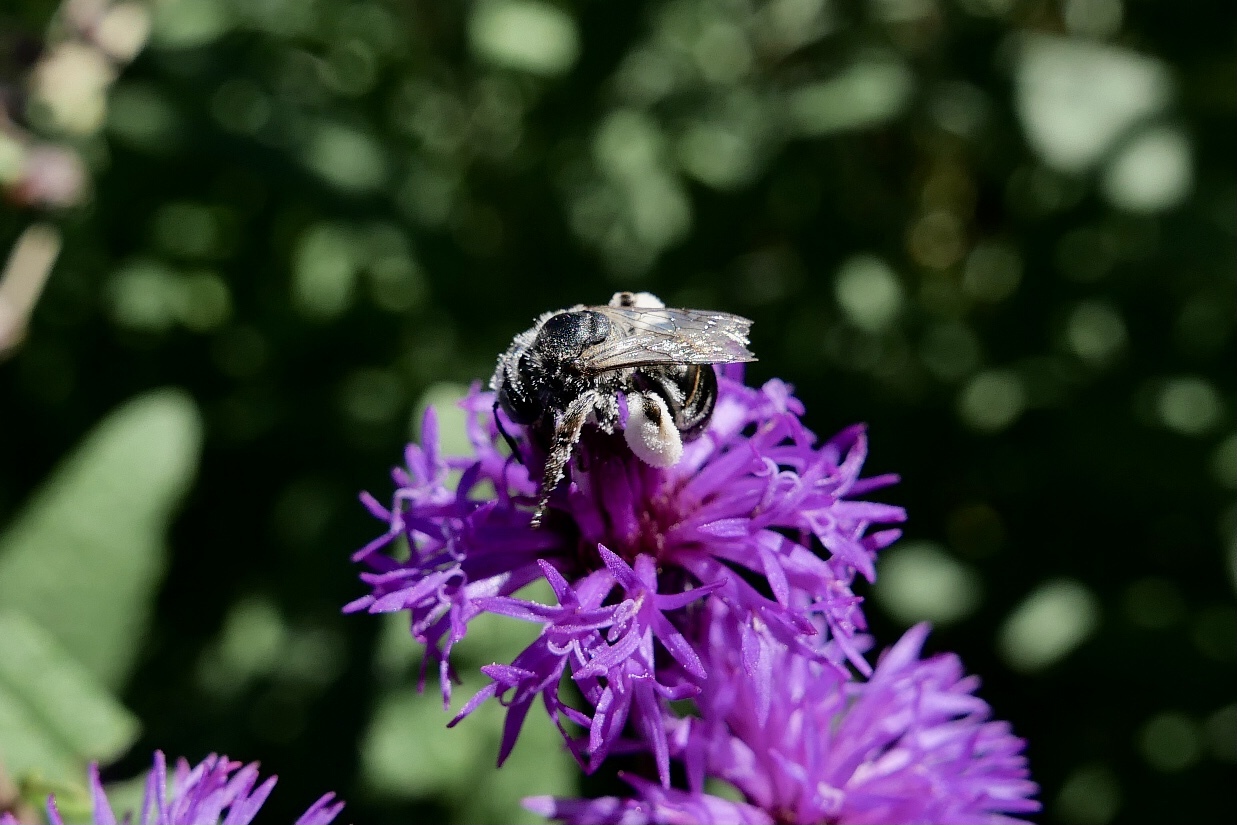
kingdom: Animalia
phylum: Arthropoda
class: Insecta
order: Hymenoptera
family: Apidae
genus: Melissodes
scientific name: Melissodes bimaculatus
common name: Two-spotted long-horned bee
